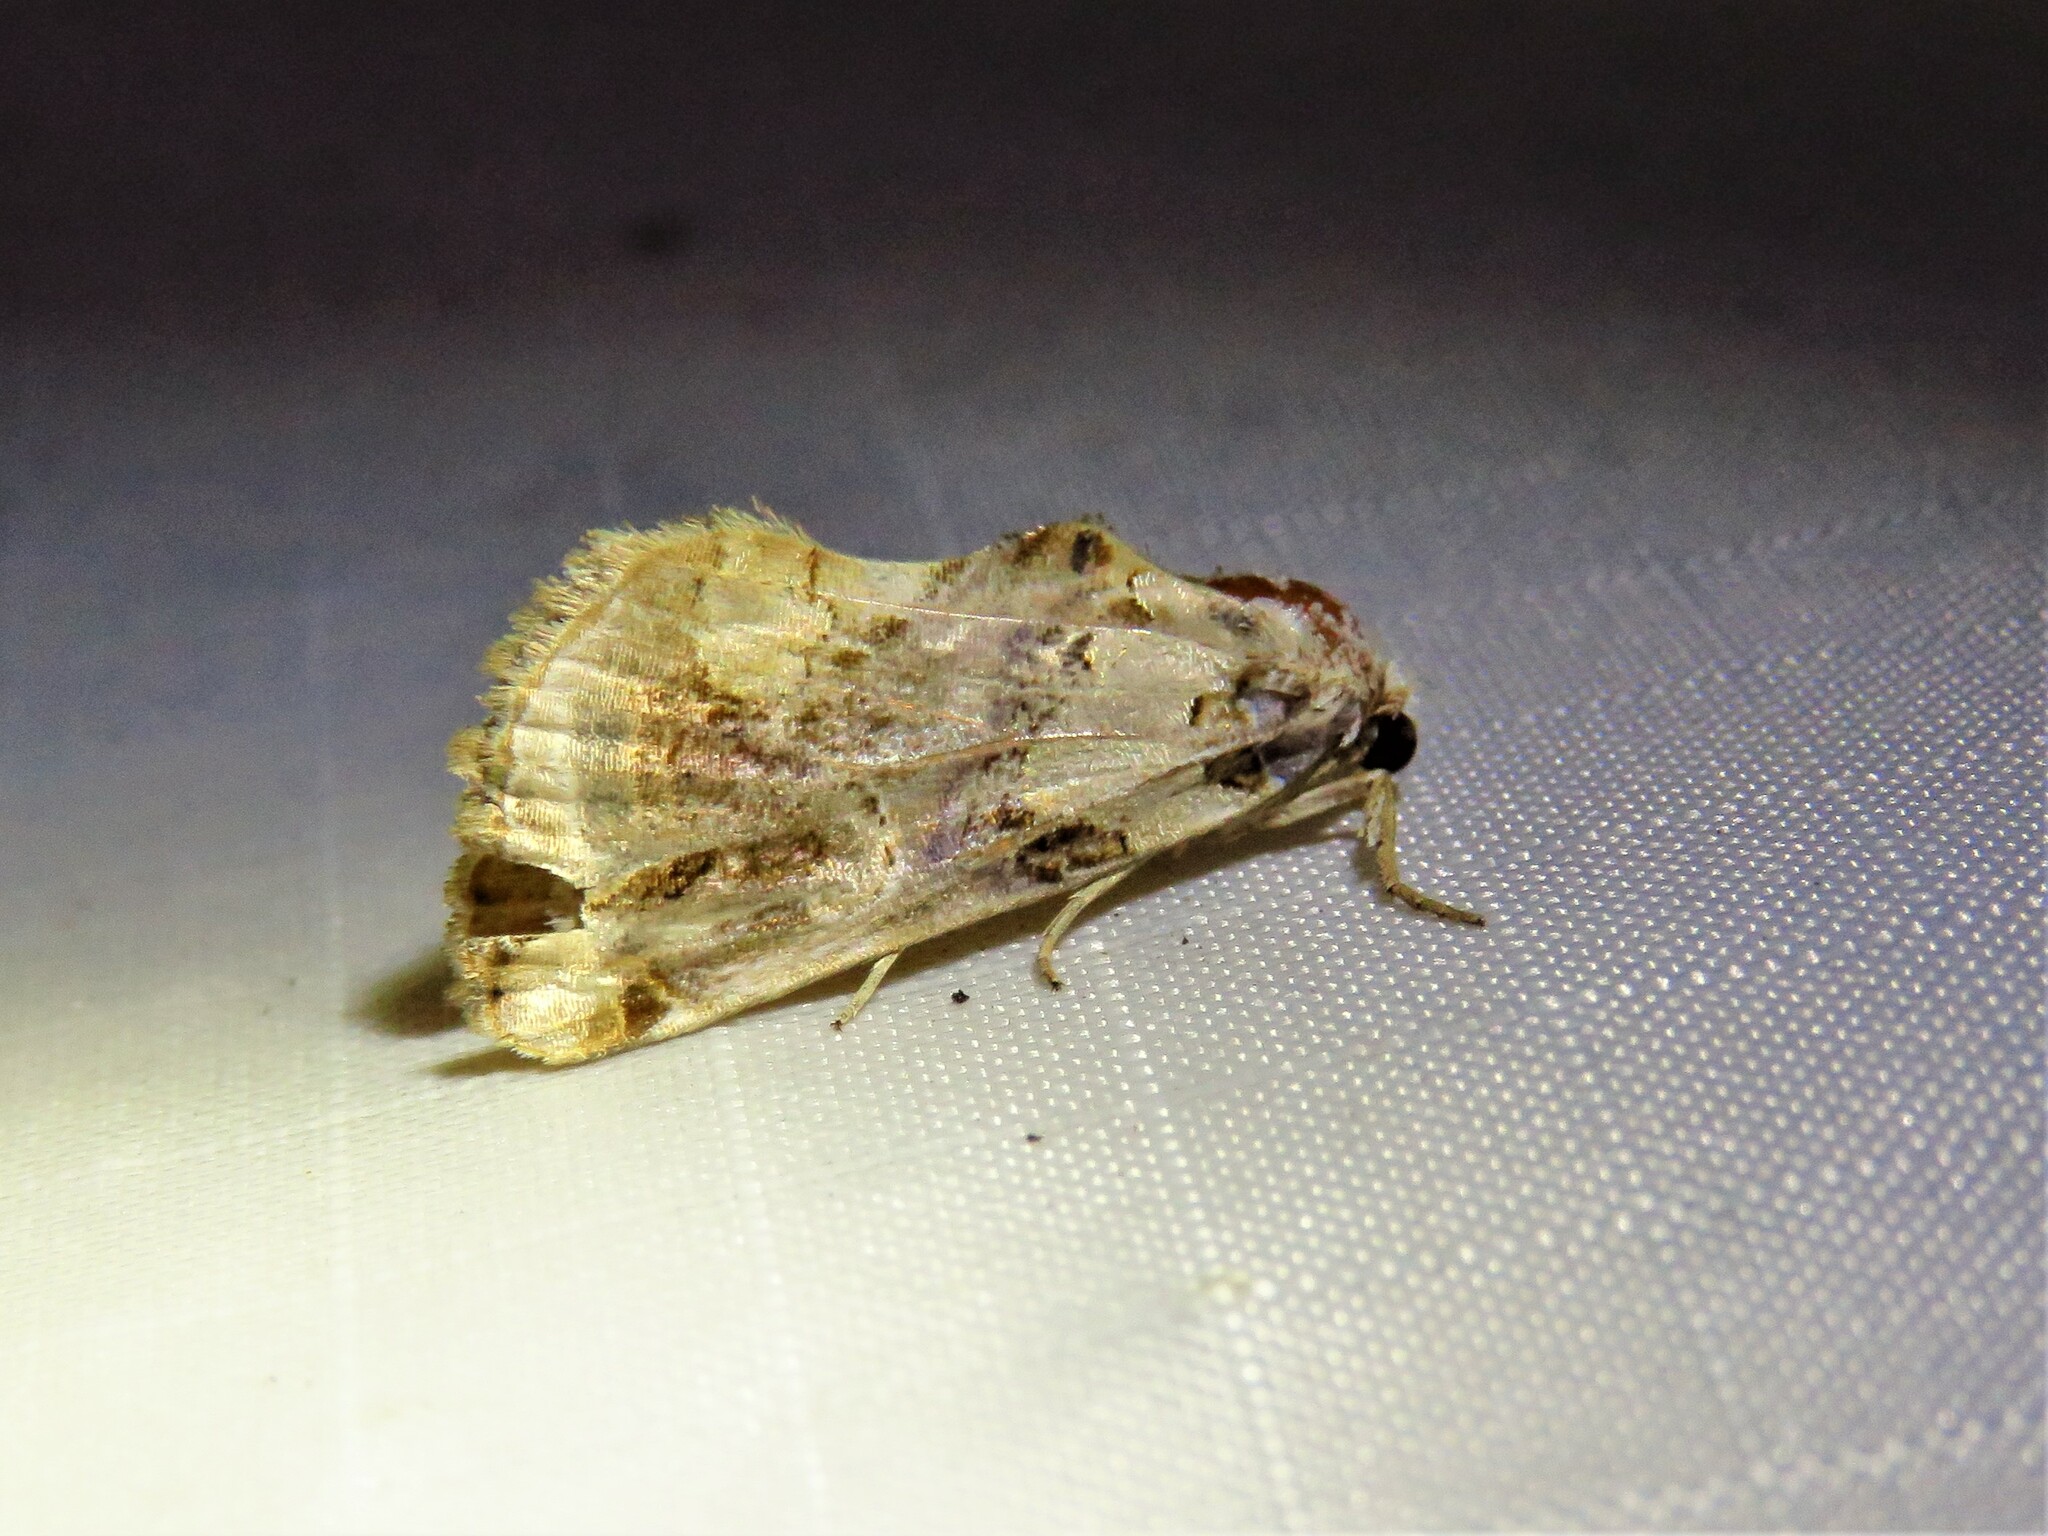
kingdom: Animalia
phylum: Arthropoda
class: Insecta
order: Lepidoptera
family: Erebidae
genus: Plusiodonta
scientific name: Plusiodonta compressipalpis
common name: Moonseed moth
